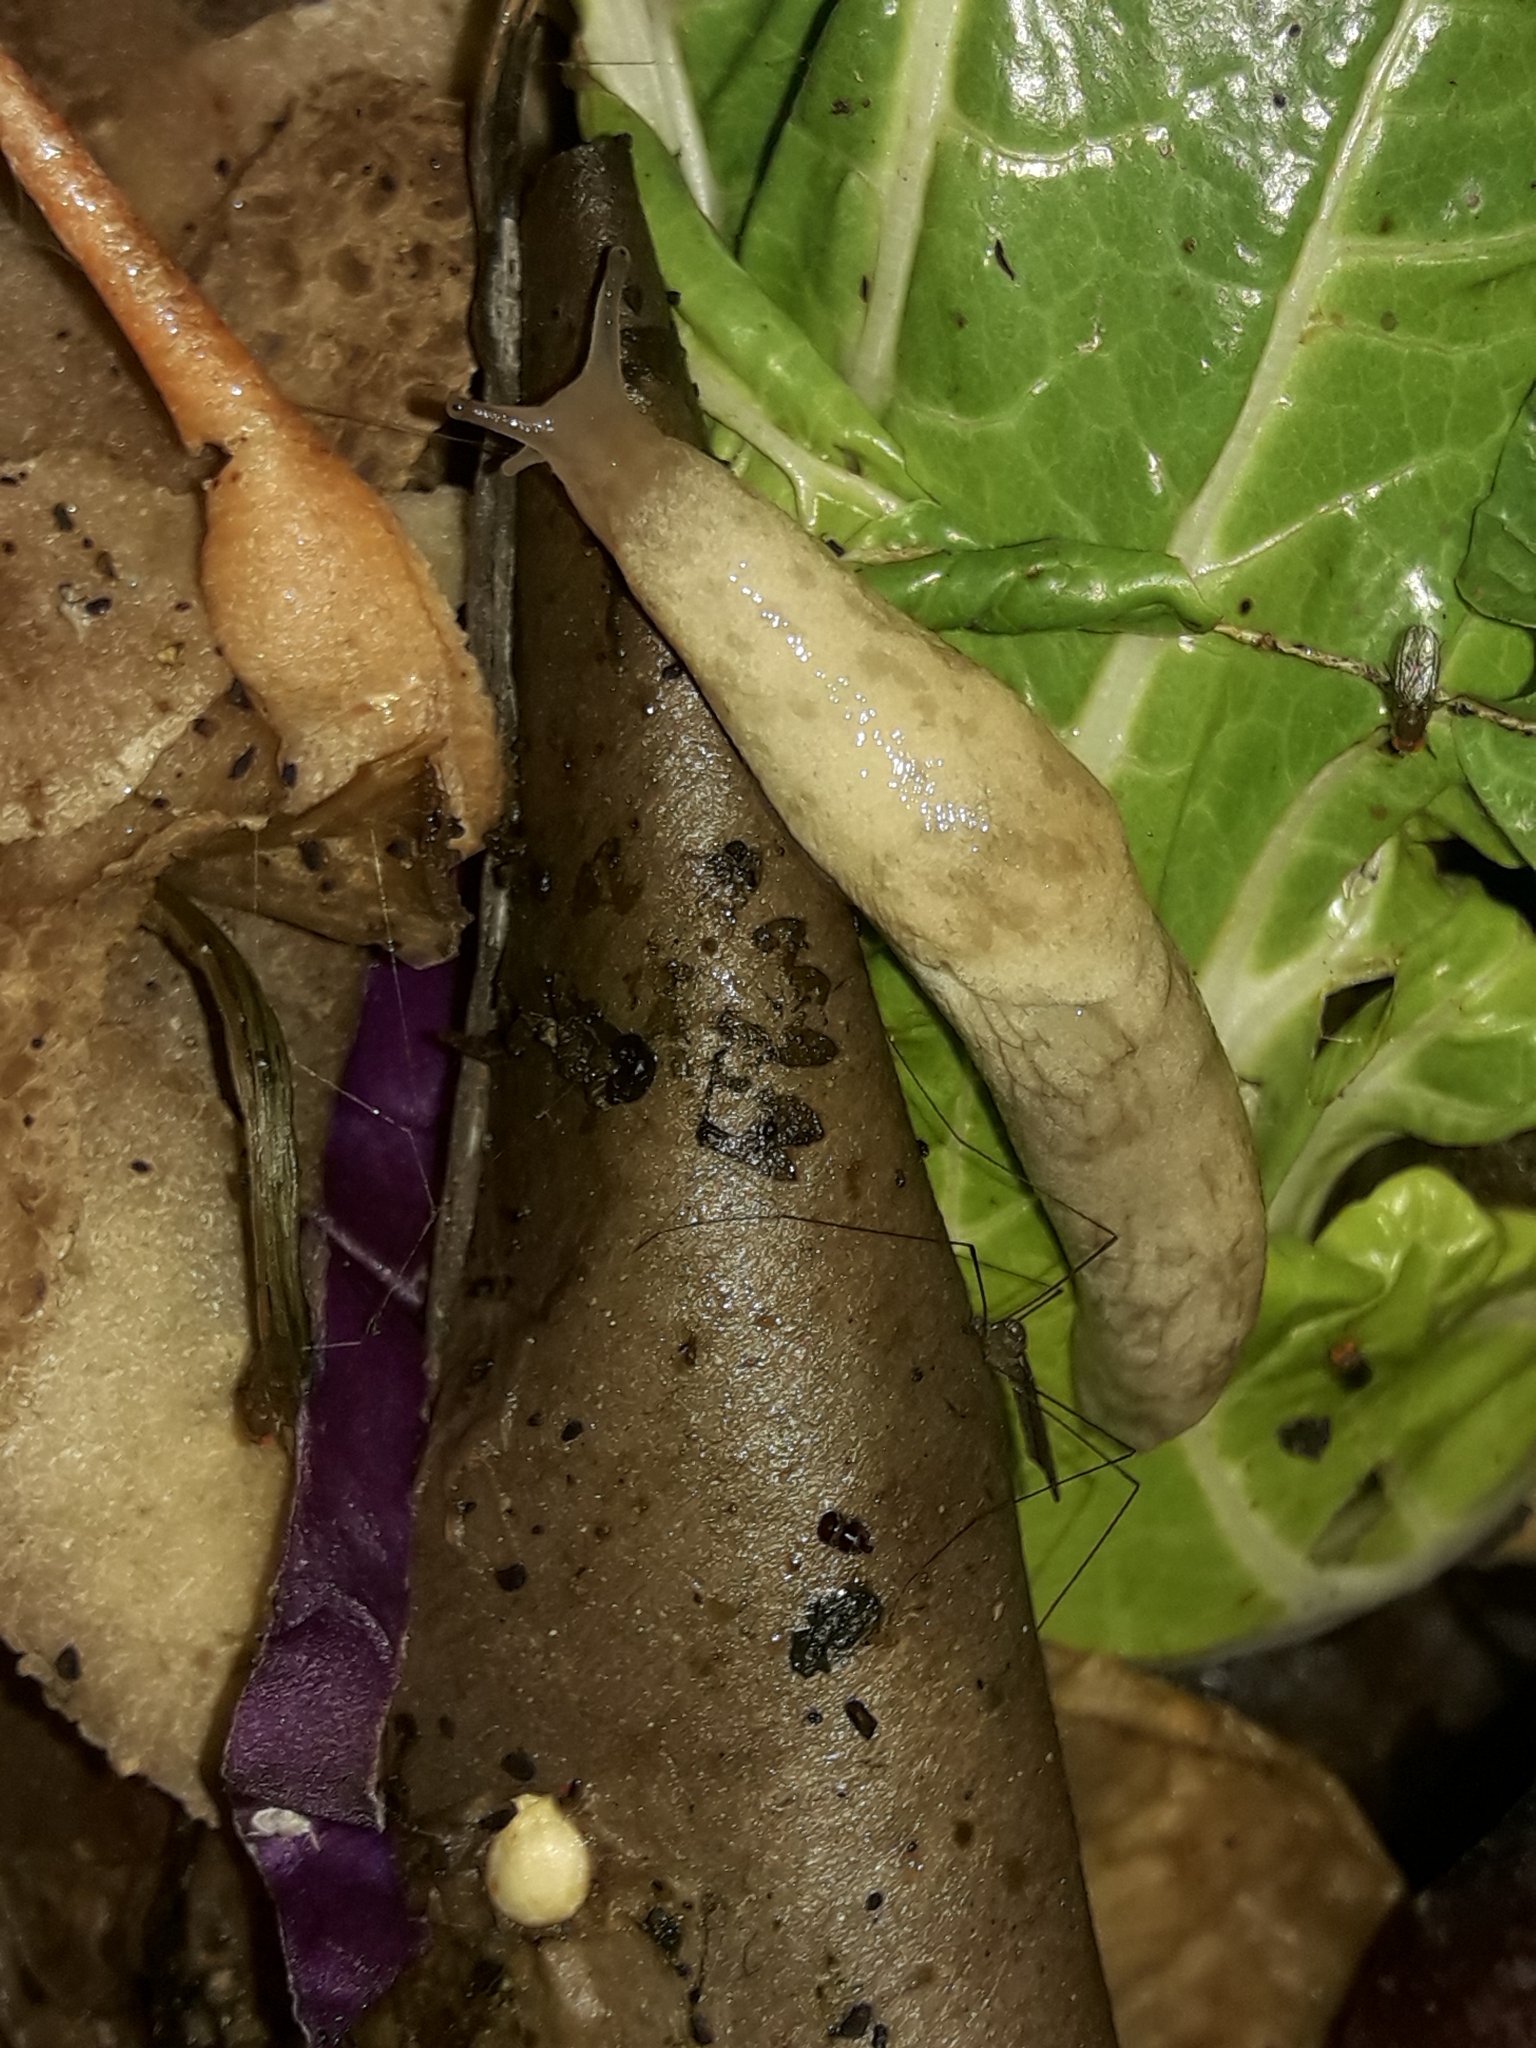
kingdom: Animalia
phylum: Mollusca
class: Gastropoda
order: Stylommatophora
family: Agriolimacidae
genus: Deroceras
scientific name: Deroceras reticulatum
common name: Gray field slug
